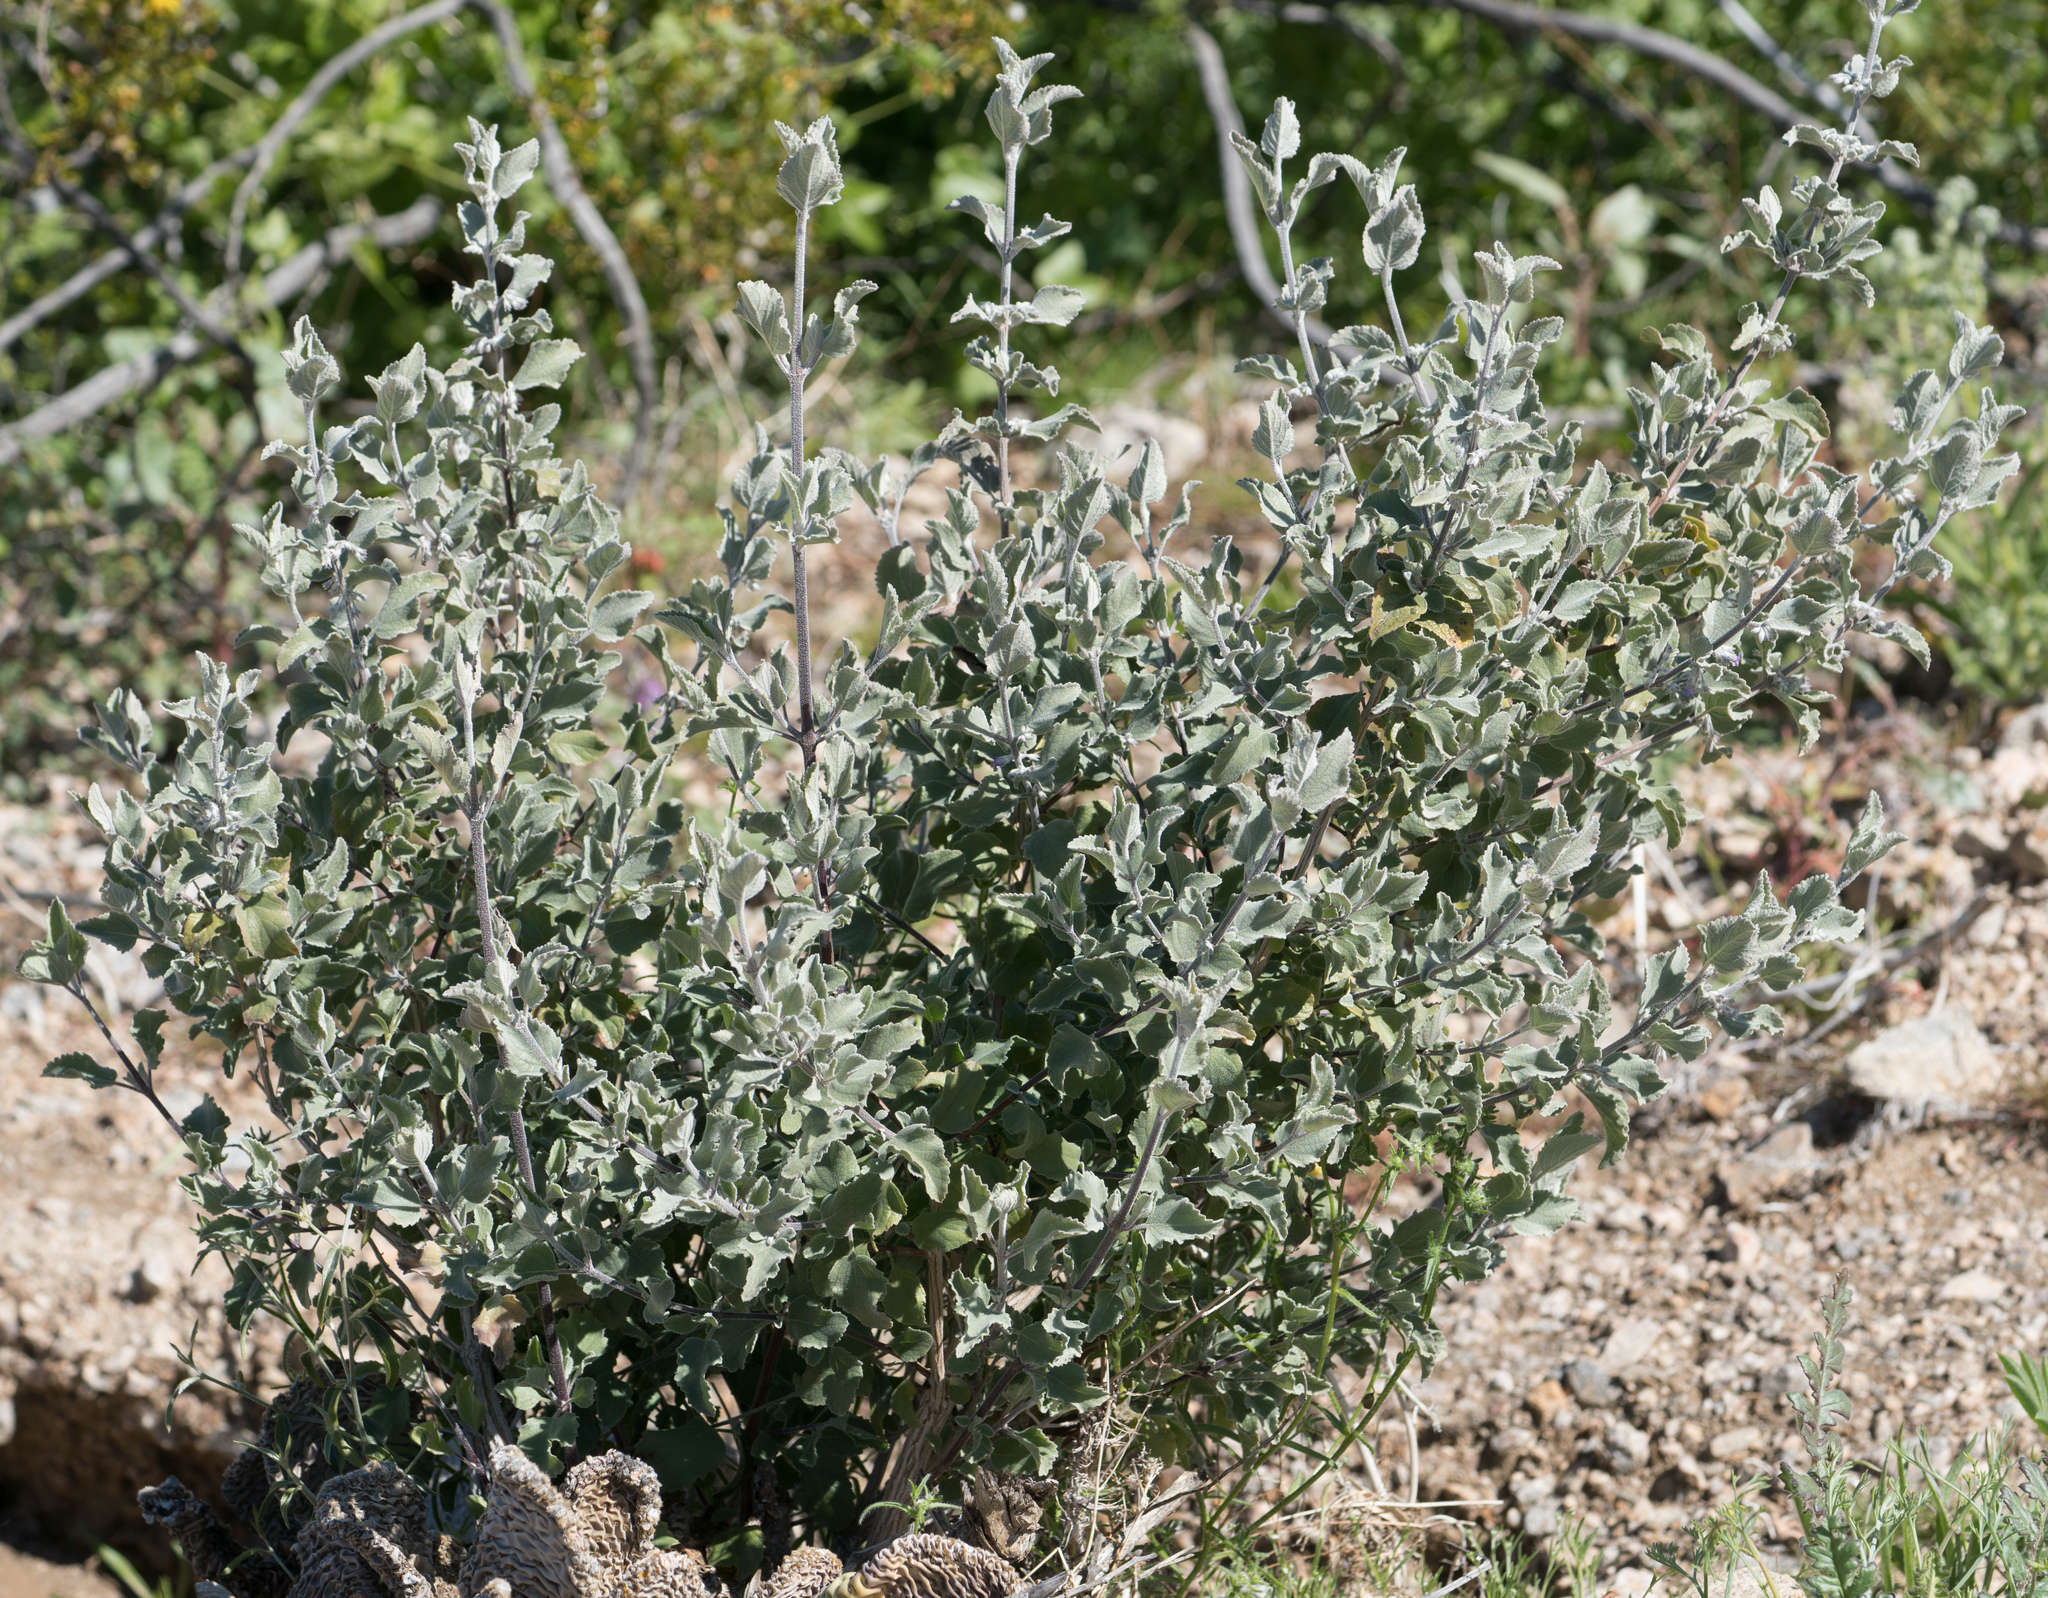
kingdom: Plantae
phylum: Tracheophyta
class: Magnoliopsida
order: Lamiales
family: Lamiaceae
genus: Condea
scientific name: Condea emoryi
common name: Chia
